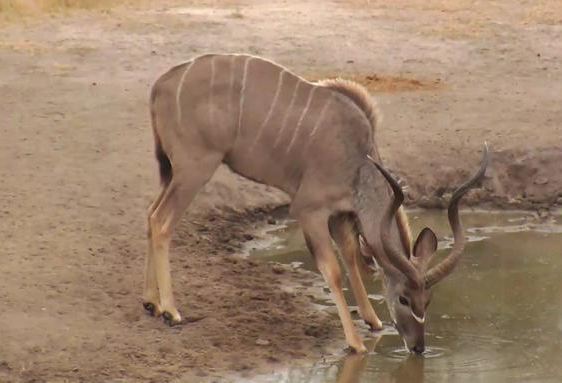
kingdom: Animalia
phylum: Chordata
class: Mammalia
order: Artiodactyla
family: Bovidae
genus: Tragelaphus
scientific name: Tragelaphus strepsiceros
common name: Greater kudu
